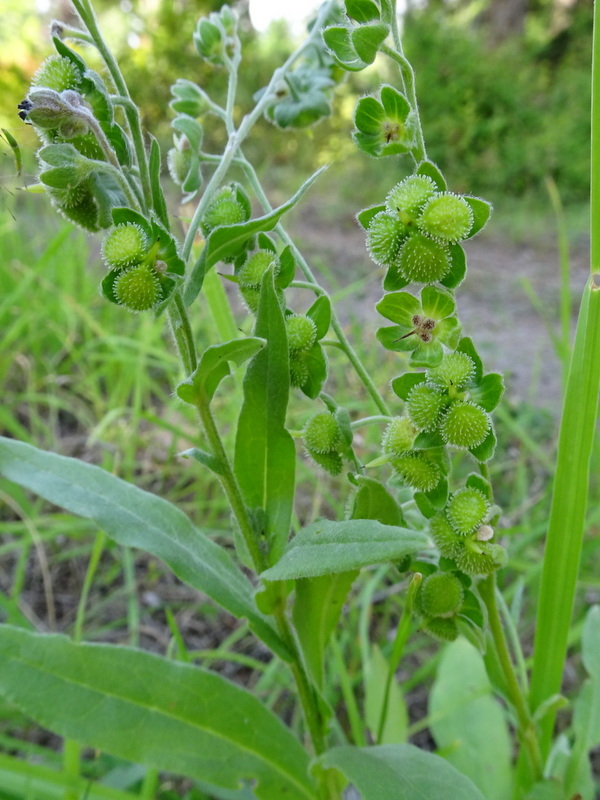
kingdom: Plantae
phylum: Tracheophyta
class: Magnoliopsida
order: Boraginales
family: Boraginaceae
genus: Cynoglossum
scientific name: Cynoglossum officinale
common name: Hound's-tongue
